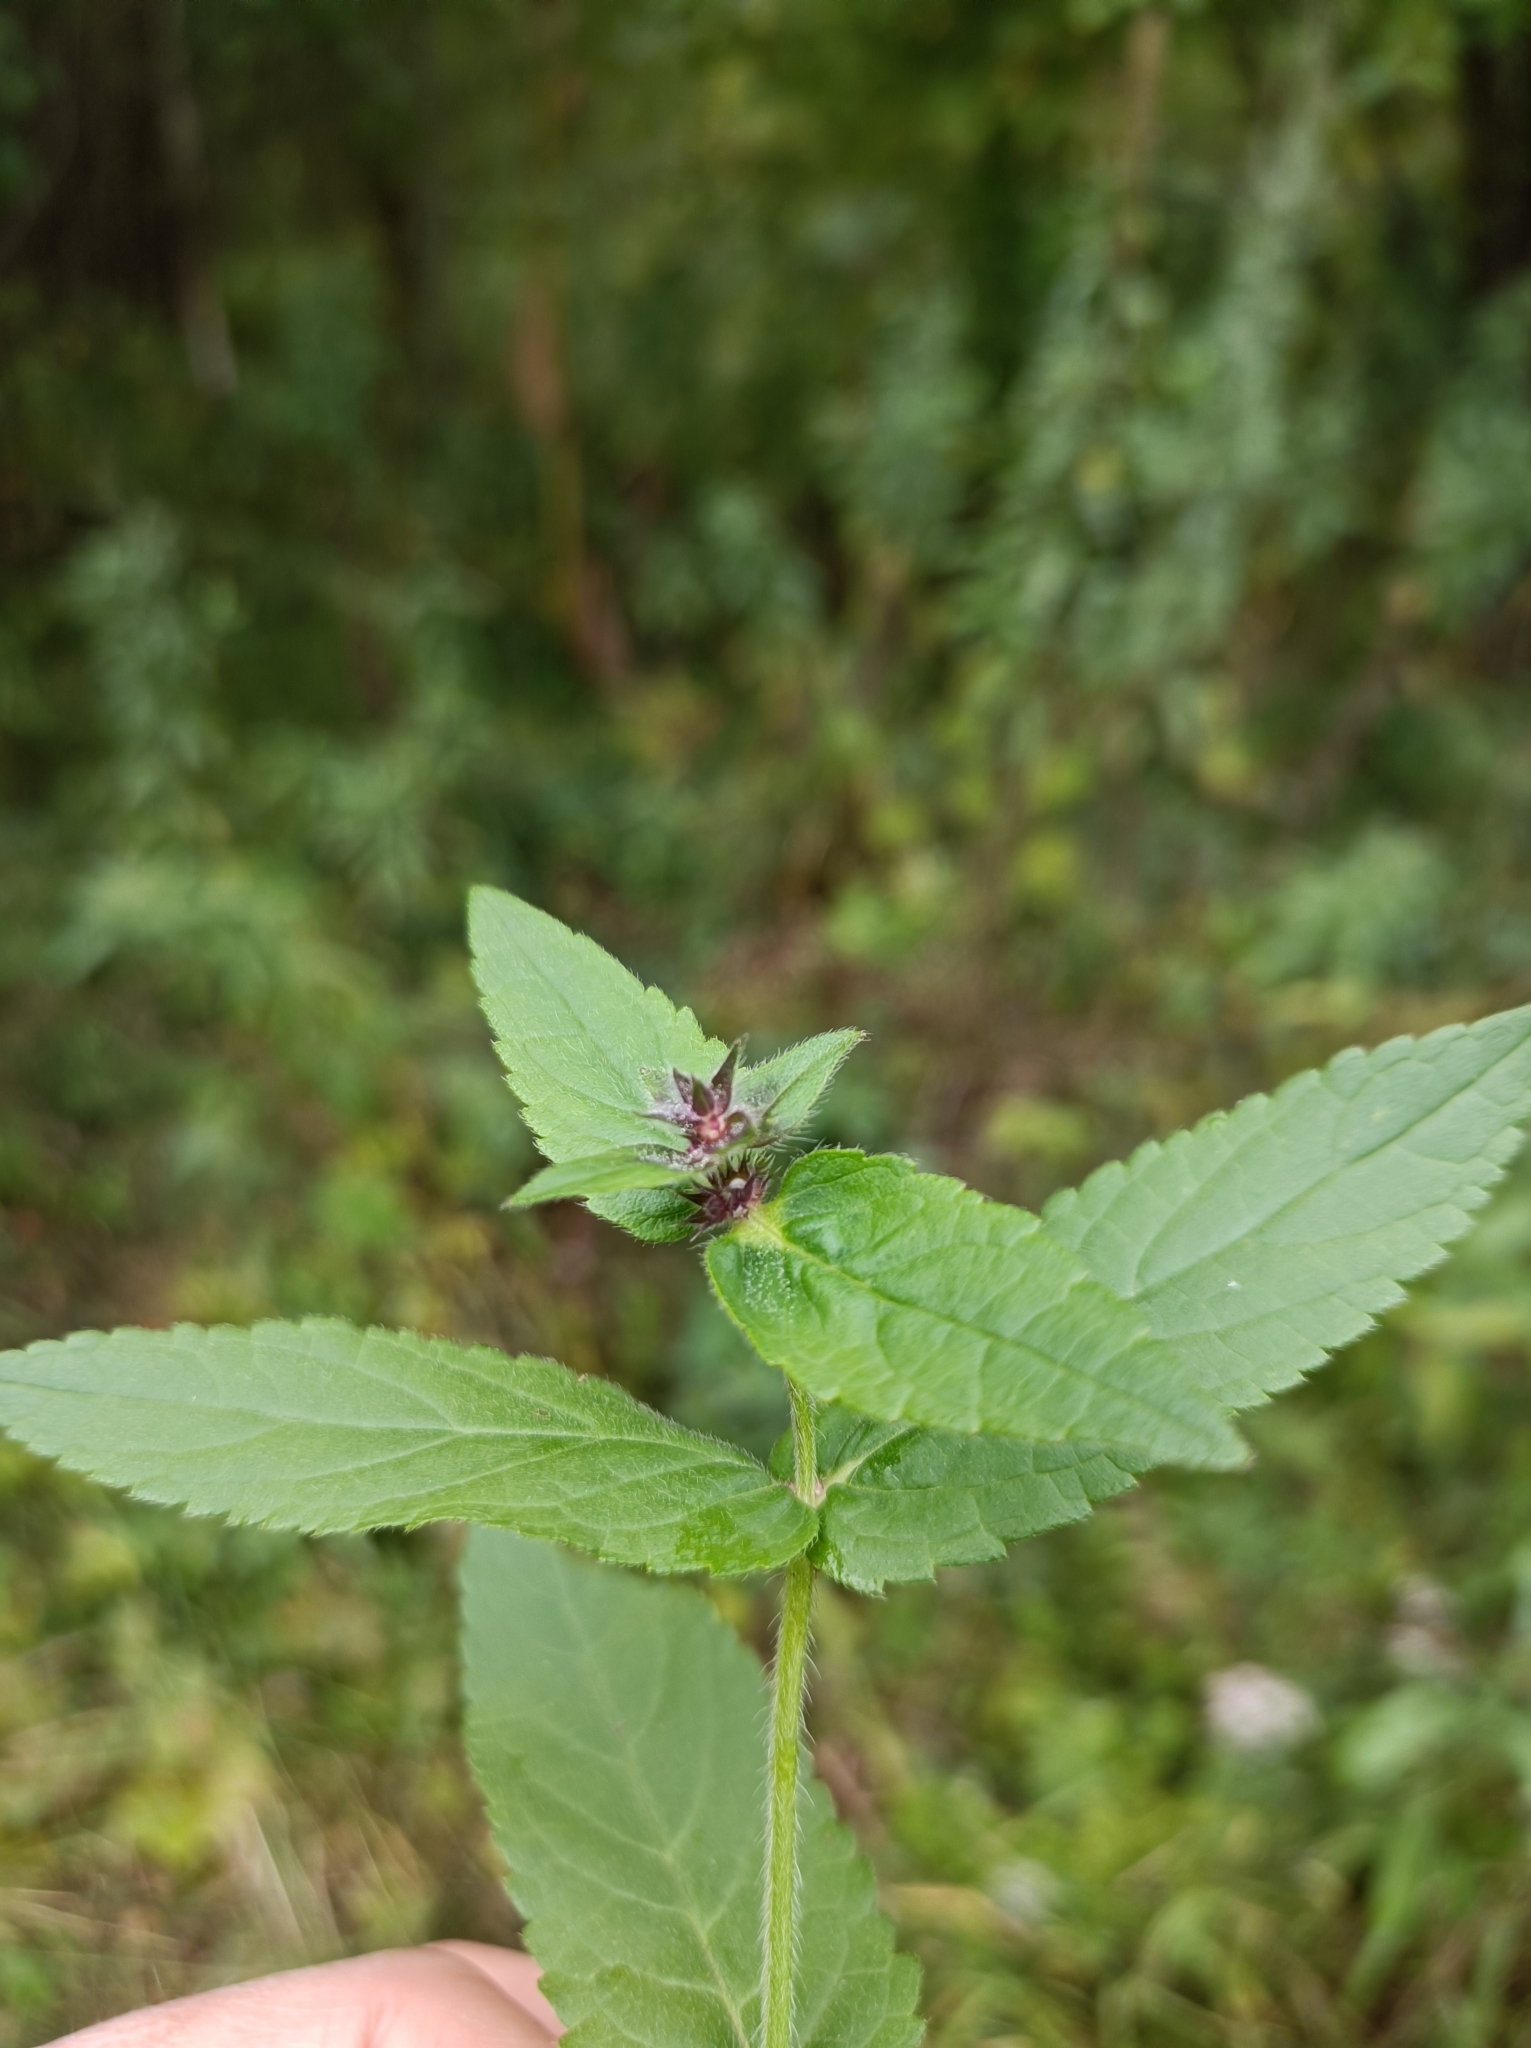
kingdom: Plantae
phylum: Tracheophyta
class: Magnoliopsida
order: Lamiales
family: Lamiaceae
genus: Stachys
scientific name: Stachys palustris
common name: Marsh woundwort
